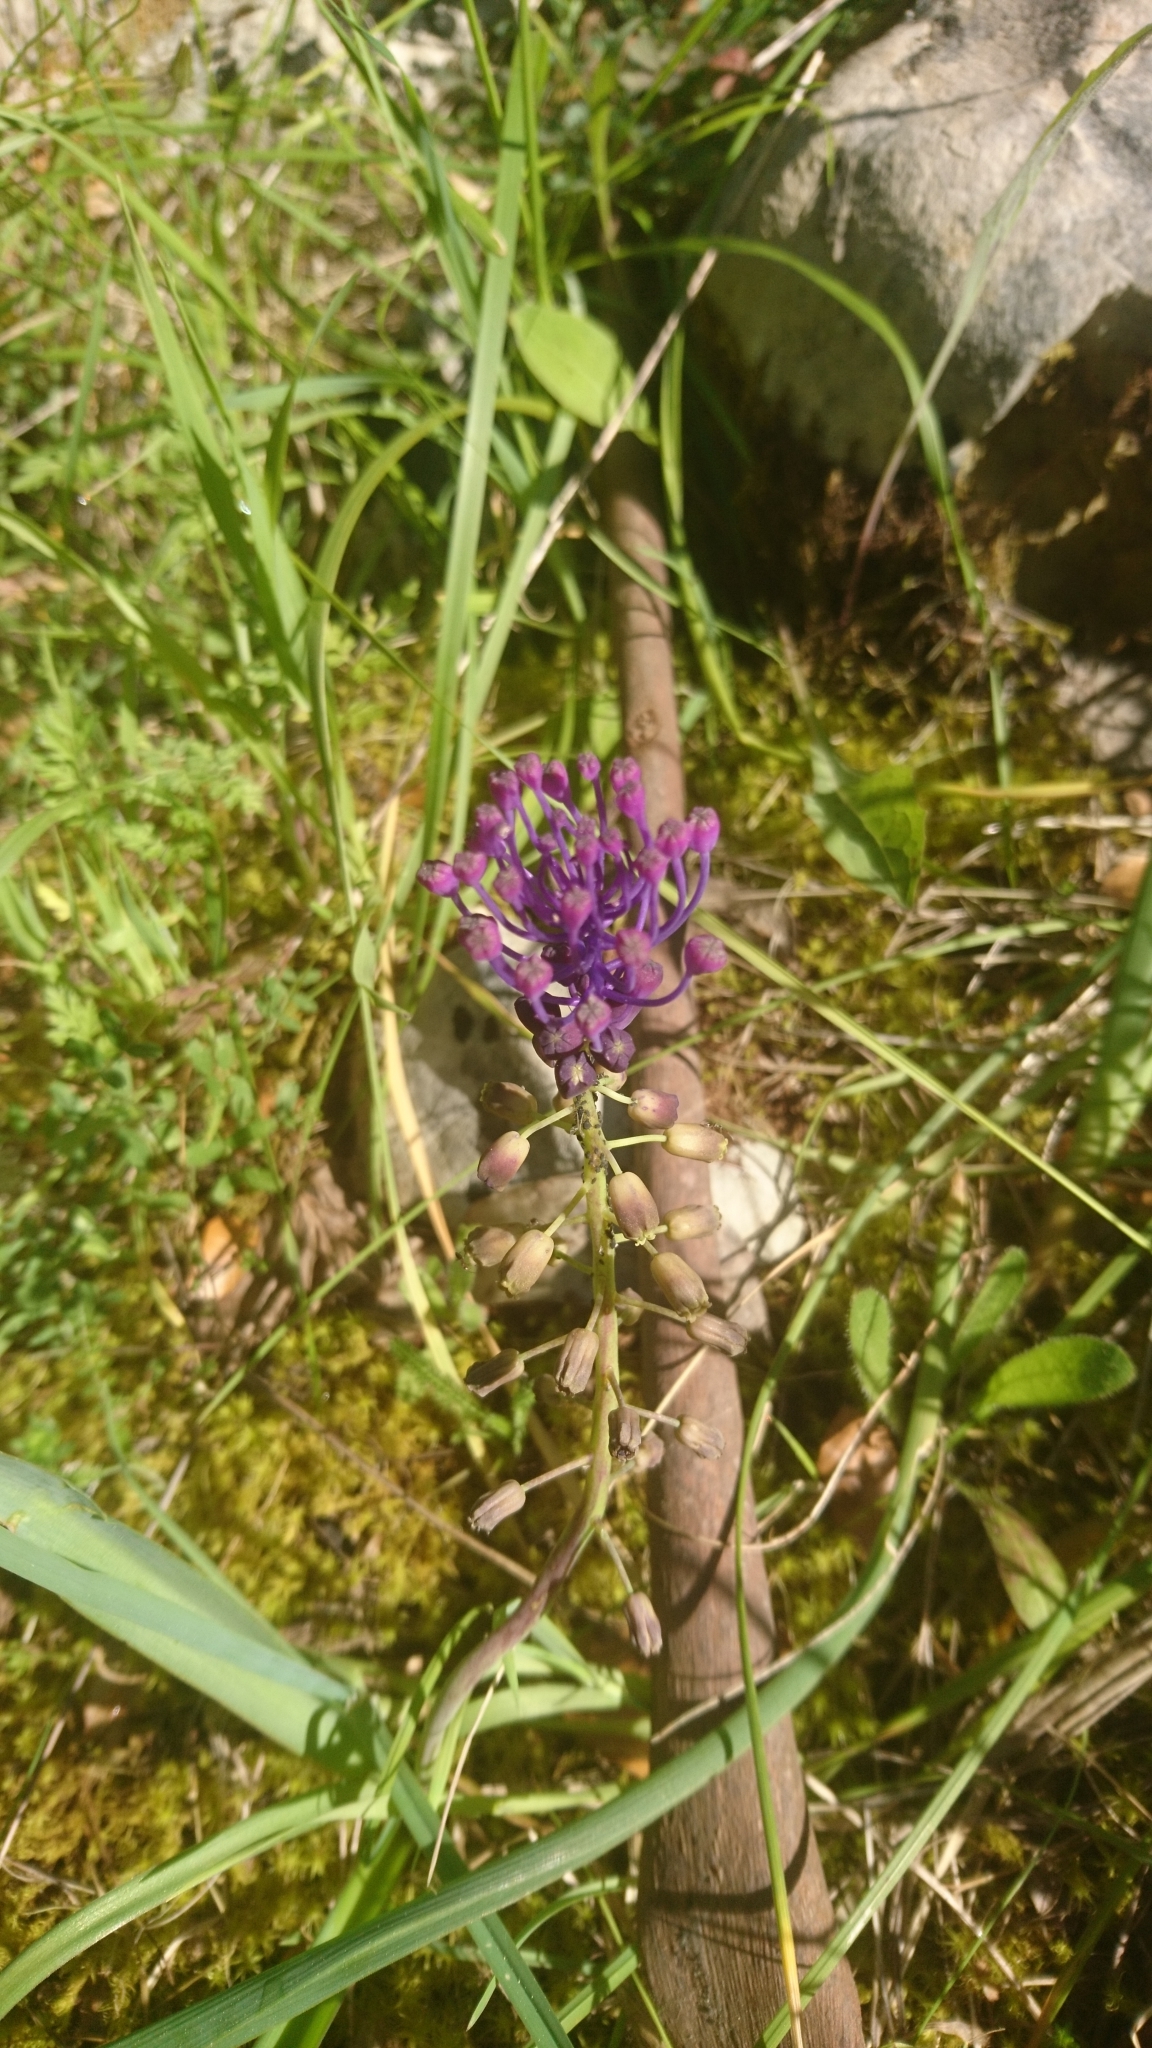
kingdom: Plantae
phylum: Tracheophyta
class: Liliopsida
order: Asparagales
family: Asparagaceae
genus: Muscari
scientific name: Muscari comosum
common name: Tassel hyacinth
